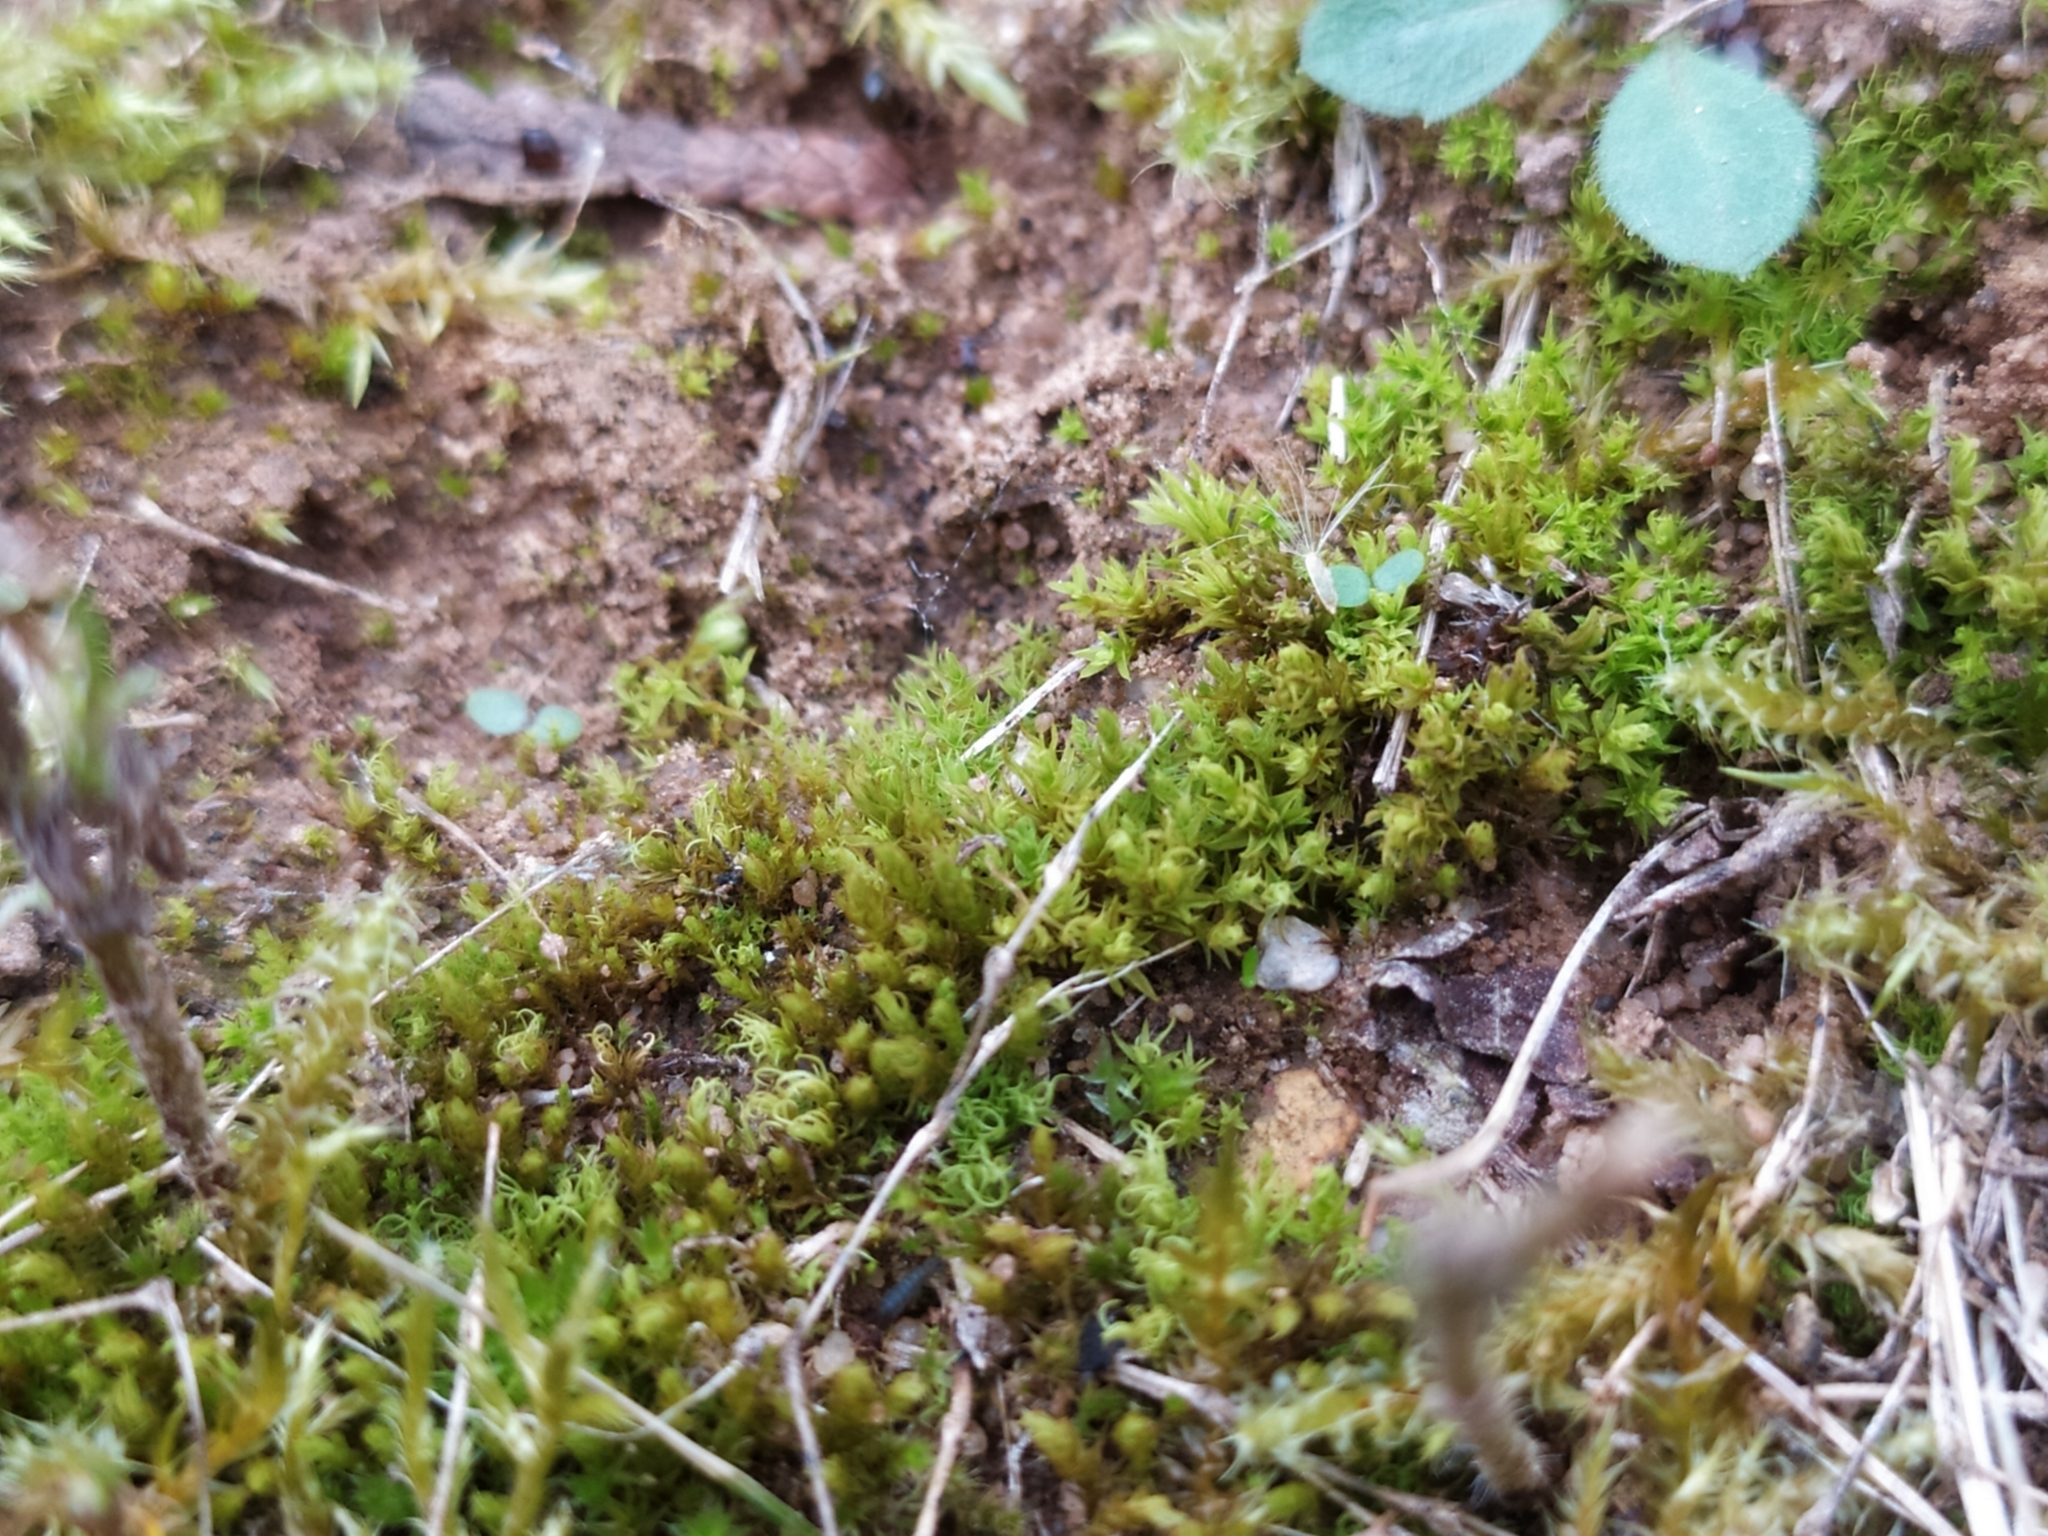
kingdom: Plantae
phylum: Bryophyta
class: Bryopsida
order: Pottiales
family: Pottiaceae
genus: Pseudocrossidium
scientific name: Pseudocrossidium hornschuchianum
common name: Hornschuch's beard-moss
